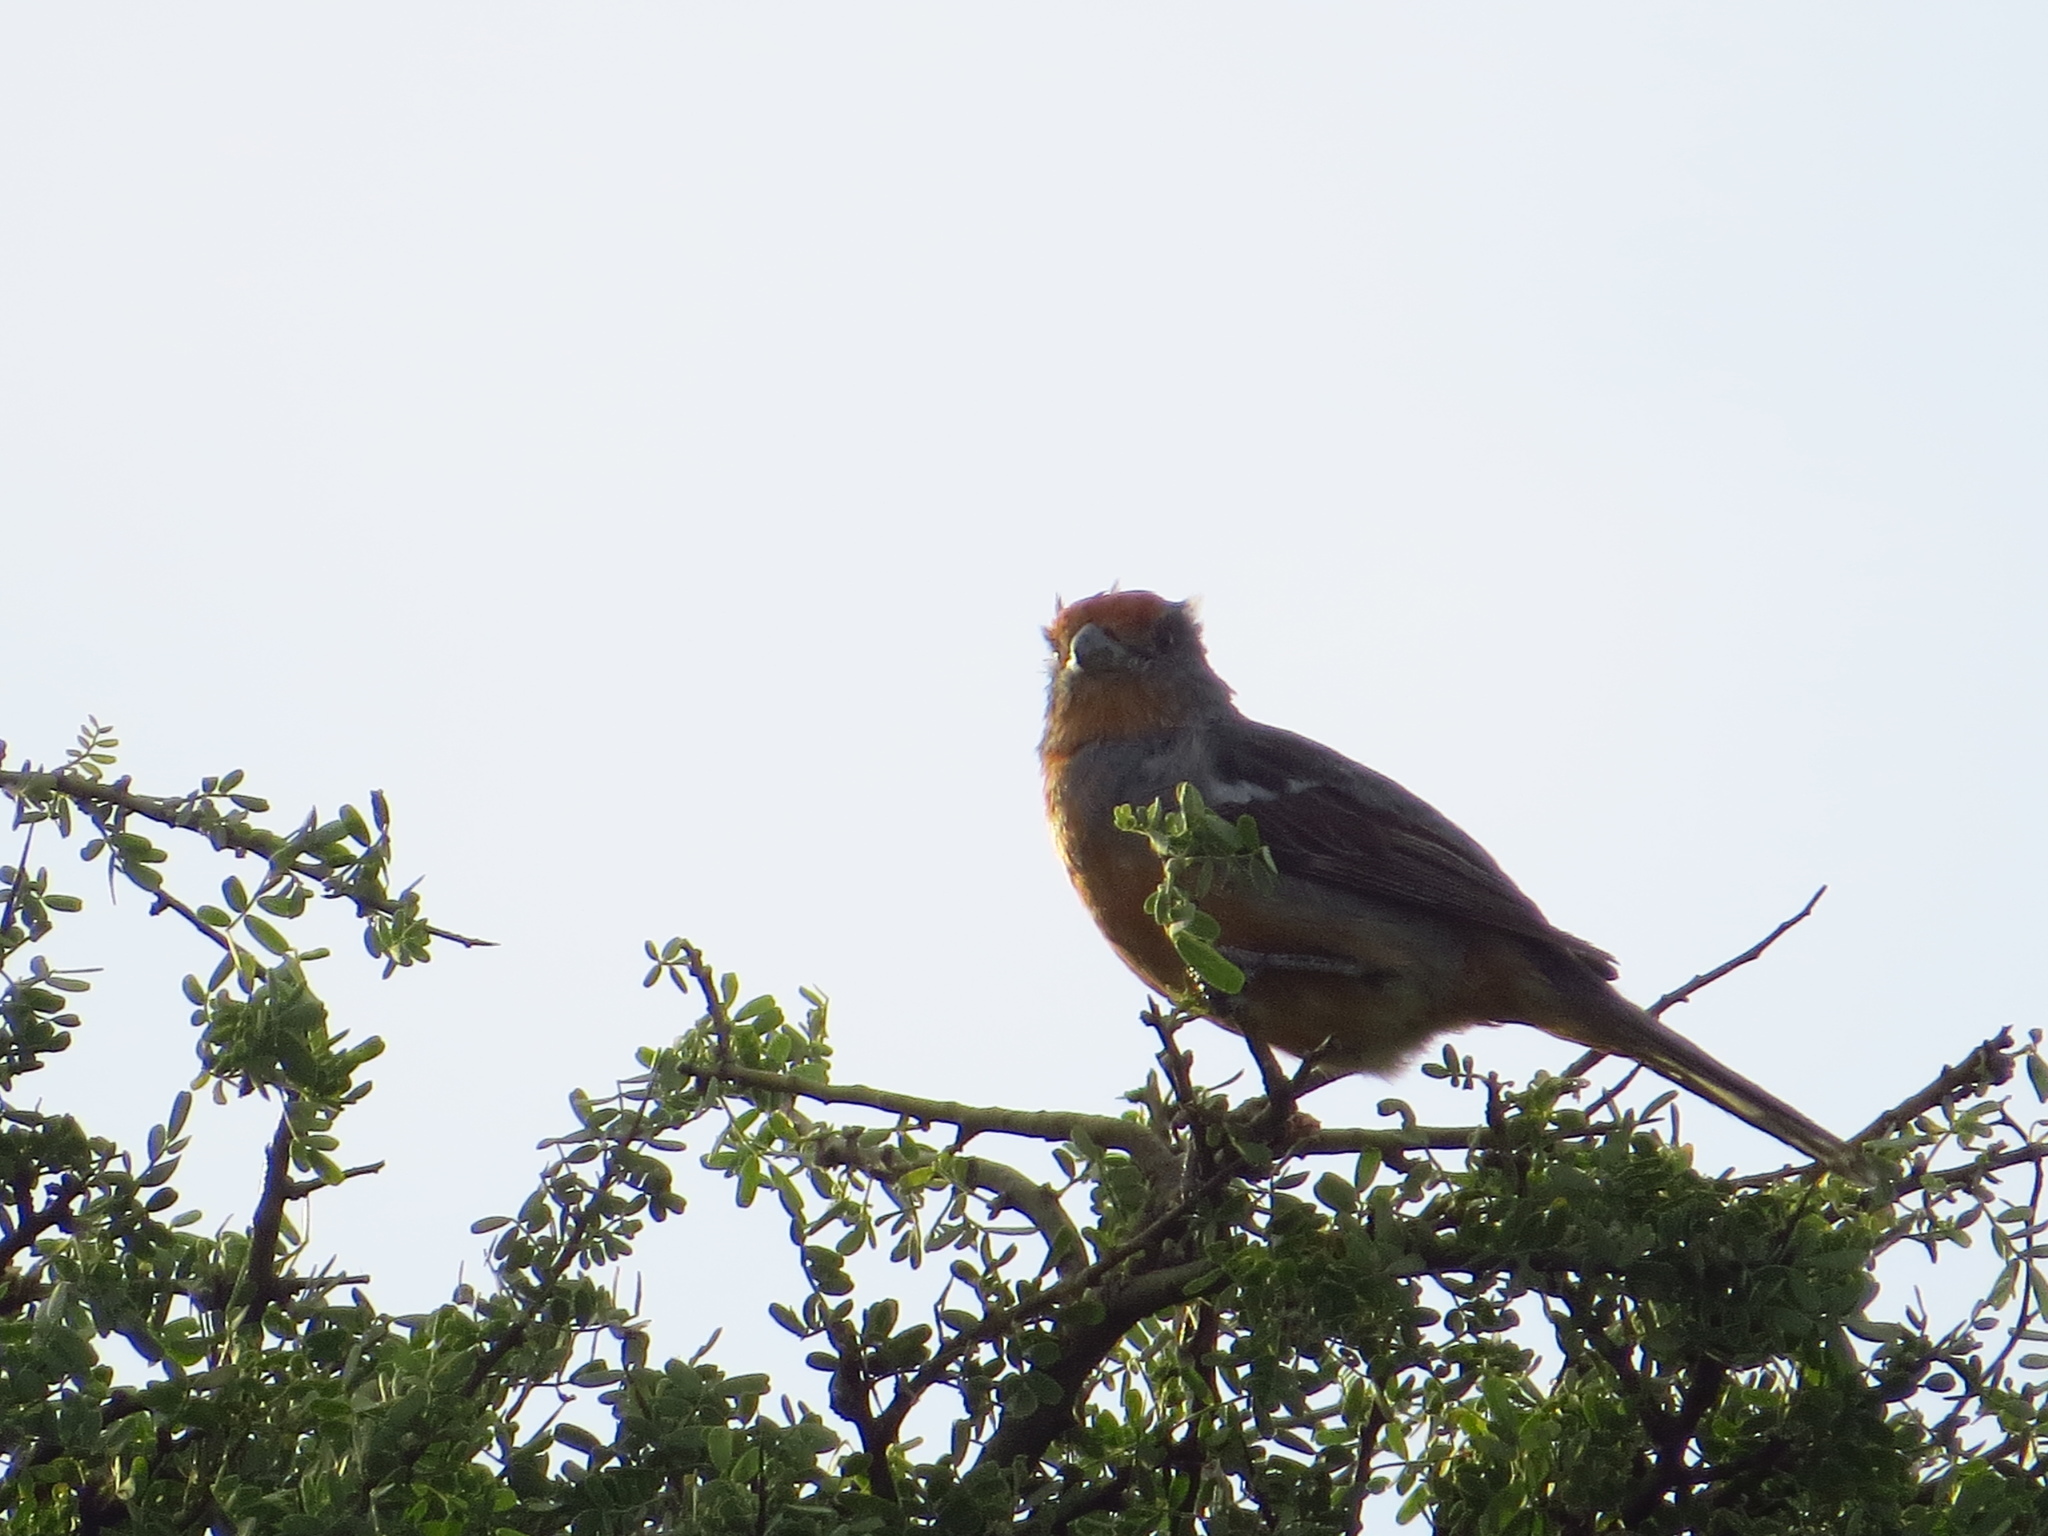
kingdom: Animalia
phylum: Chordata
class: Aves
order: Passeriformes
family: Cotingidae
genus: Phytotoma
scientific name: Phytotoma rutila
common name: White-tipped plantcutter
